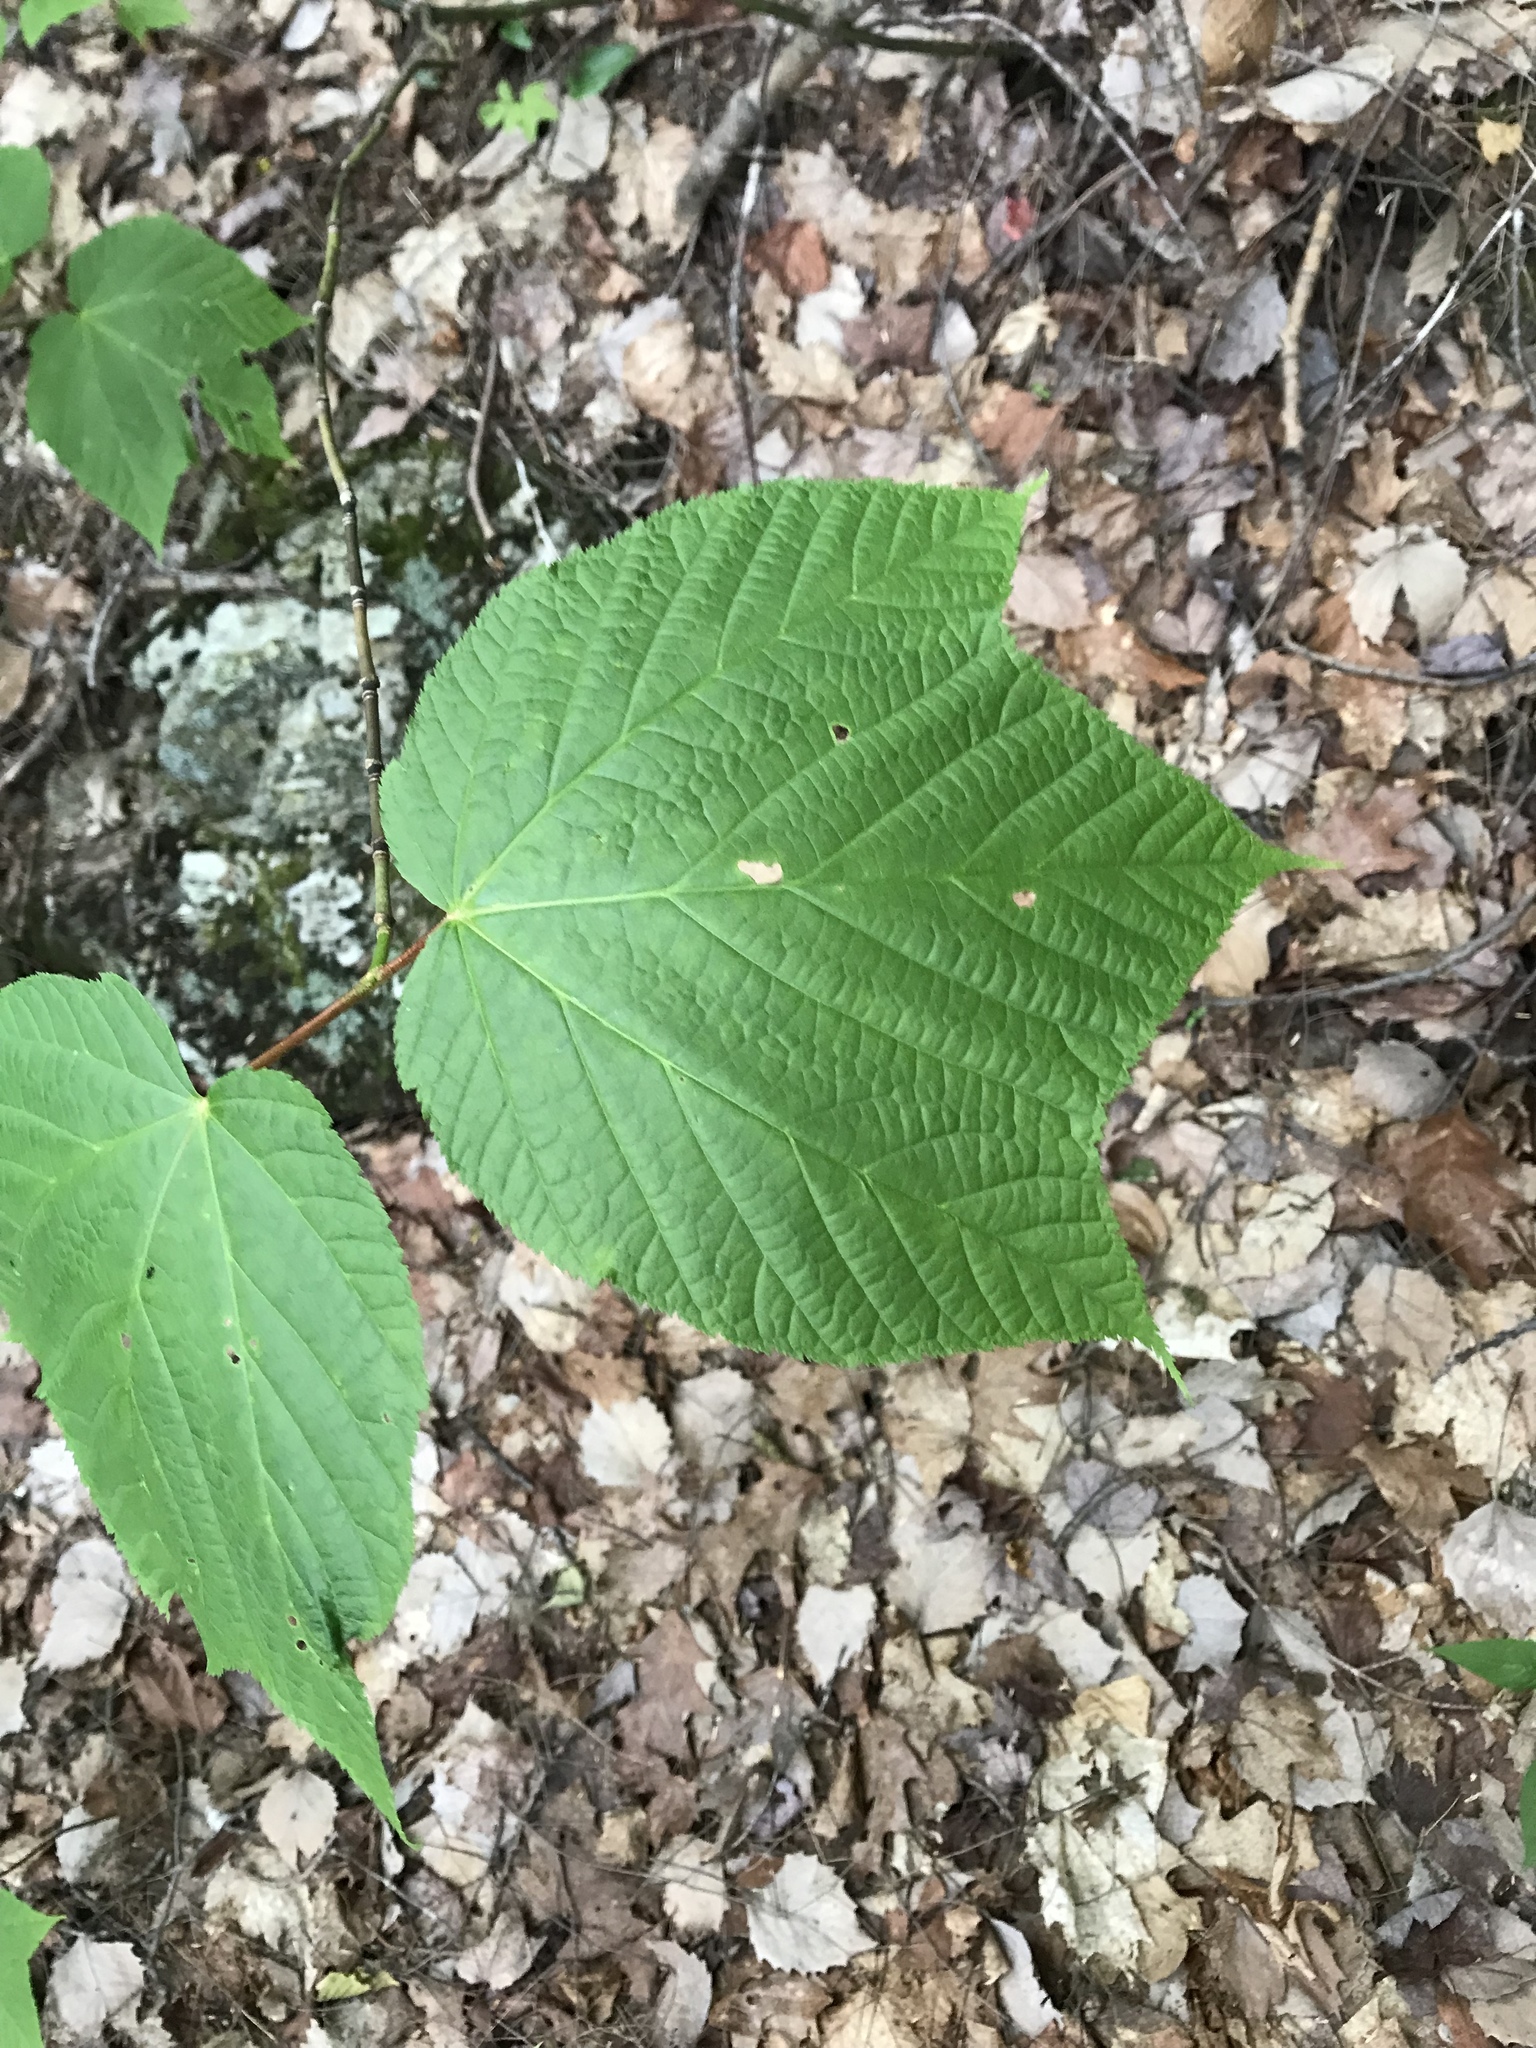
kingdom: Plantae
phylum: Tracheophyta
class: Magnoliopsida
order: Sapindales
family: Sapindaceae
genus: Acer
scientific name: Acer pensylvanicum
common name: Moosewood
